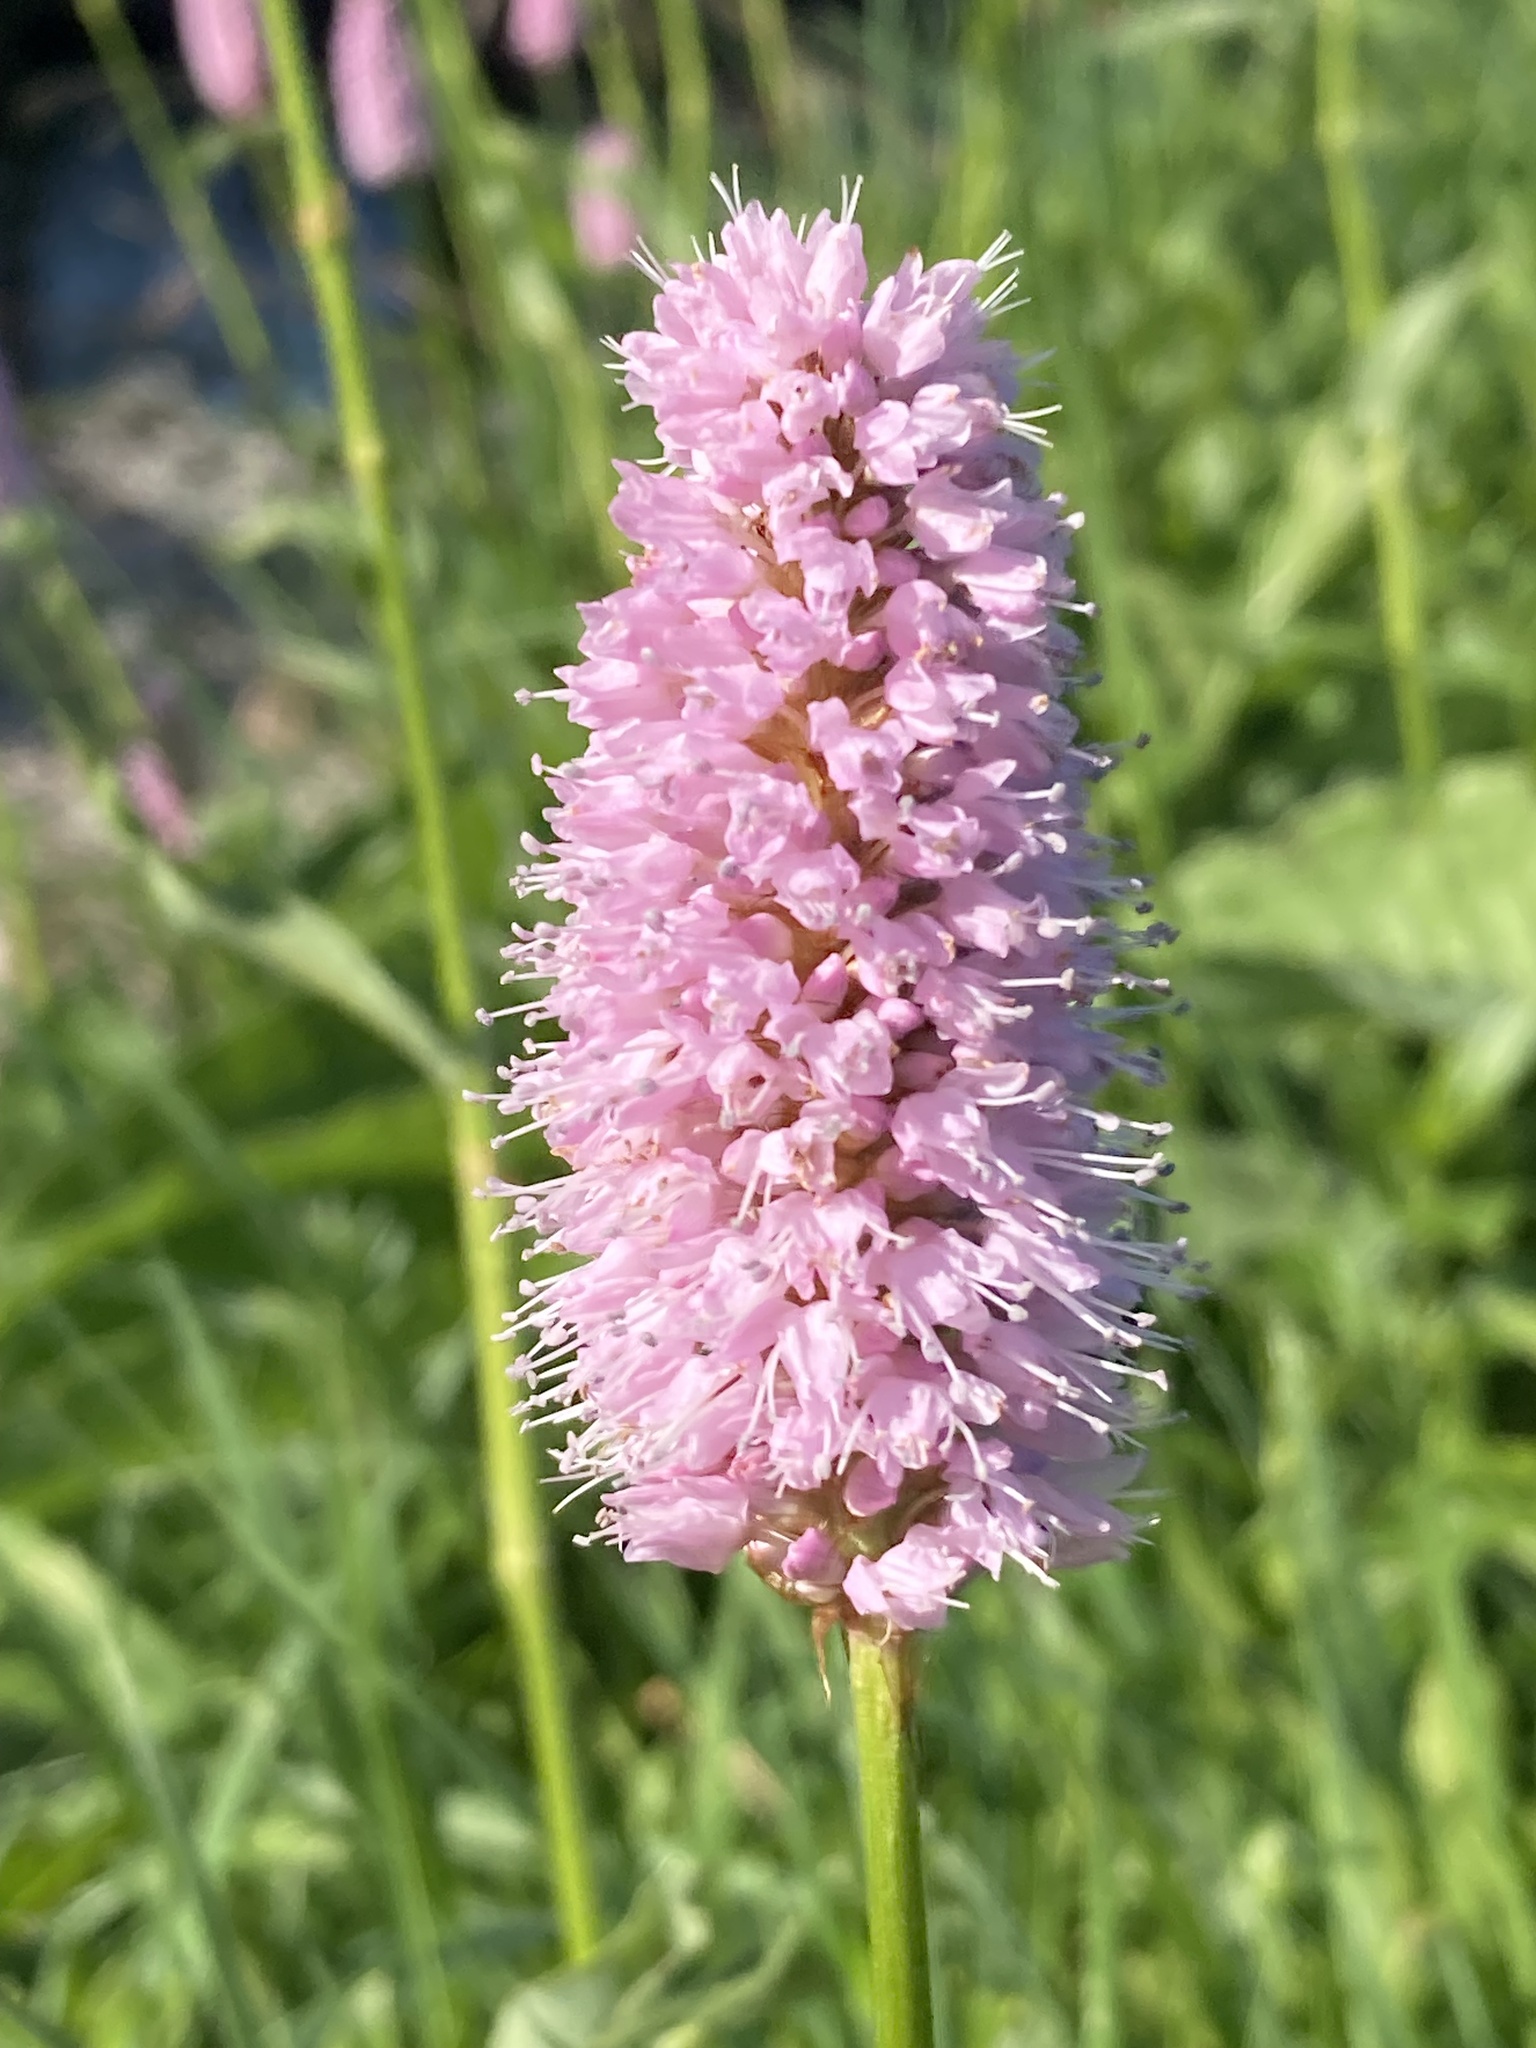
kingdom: Plantae
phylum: Tracheophyta
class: Magnoliopsida
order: Caryophyllales
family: Polygonaceae
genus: Bistorta
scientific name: Bistorta officinalis
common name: Common bistort
